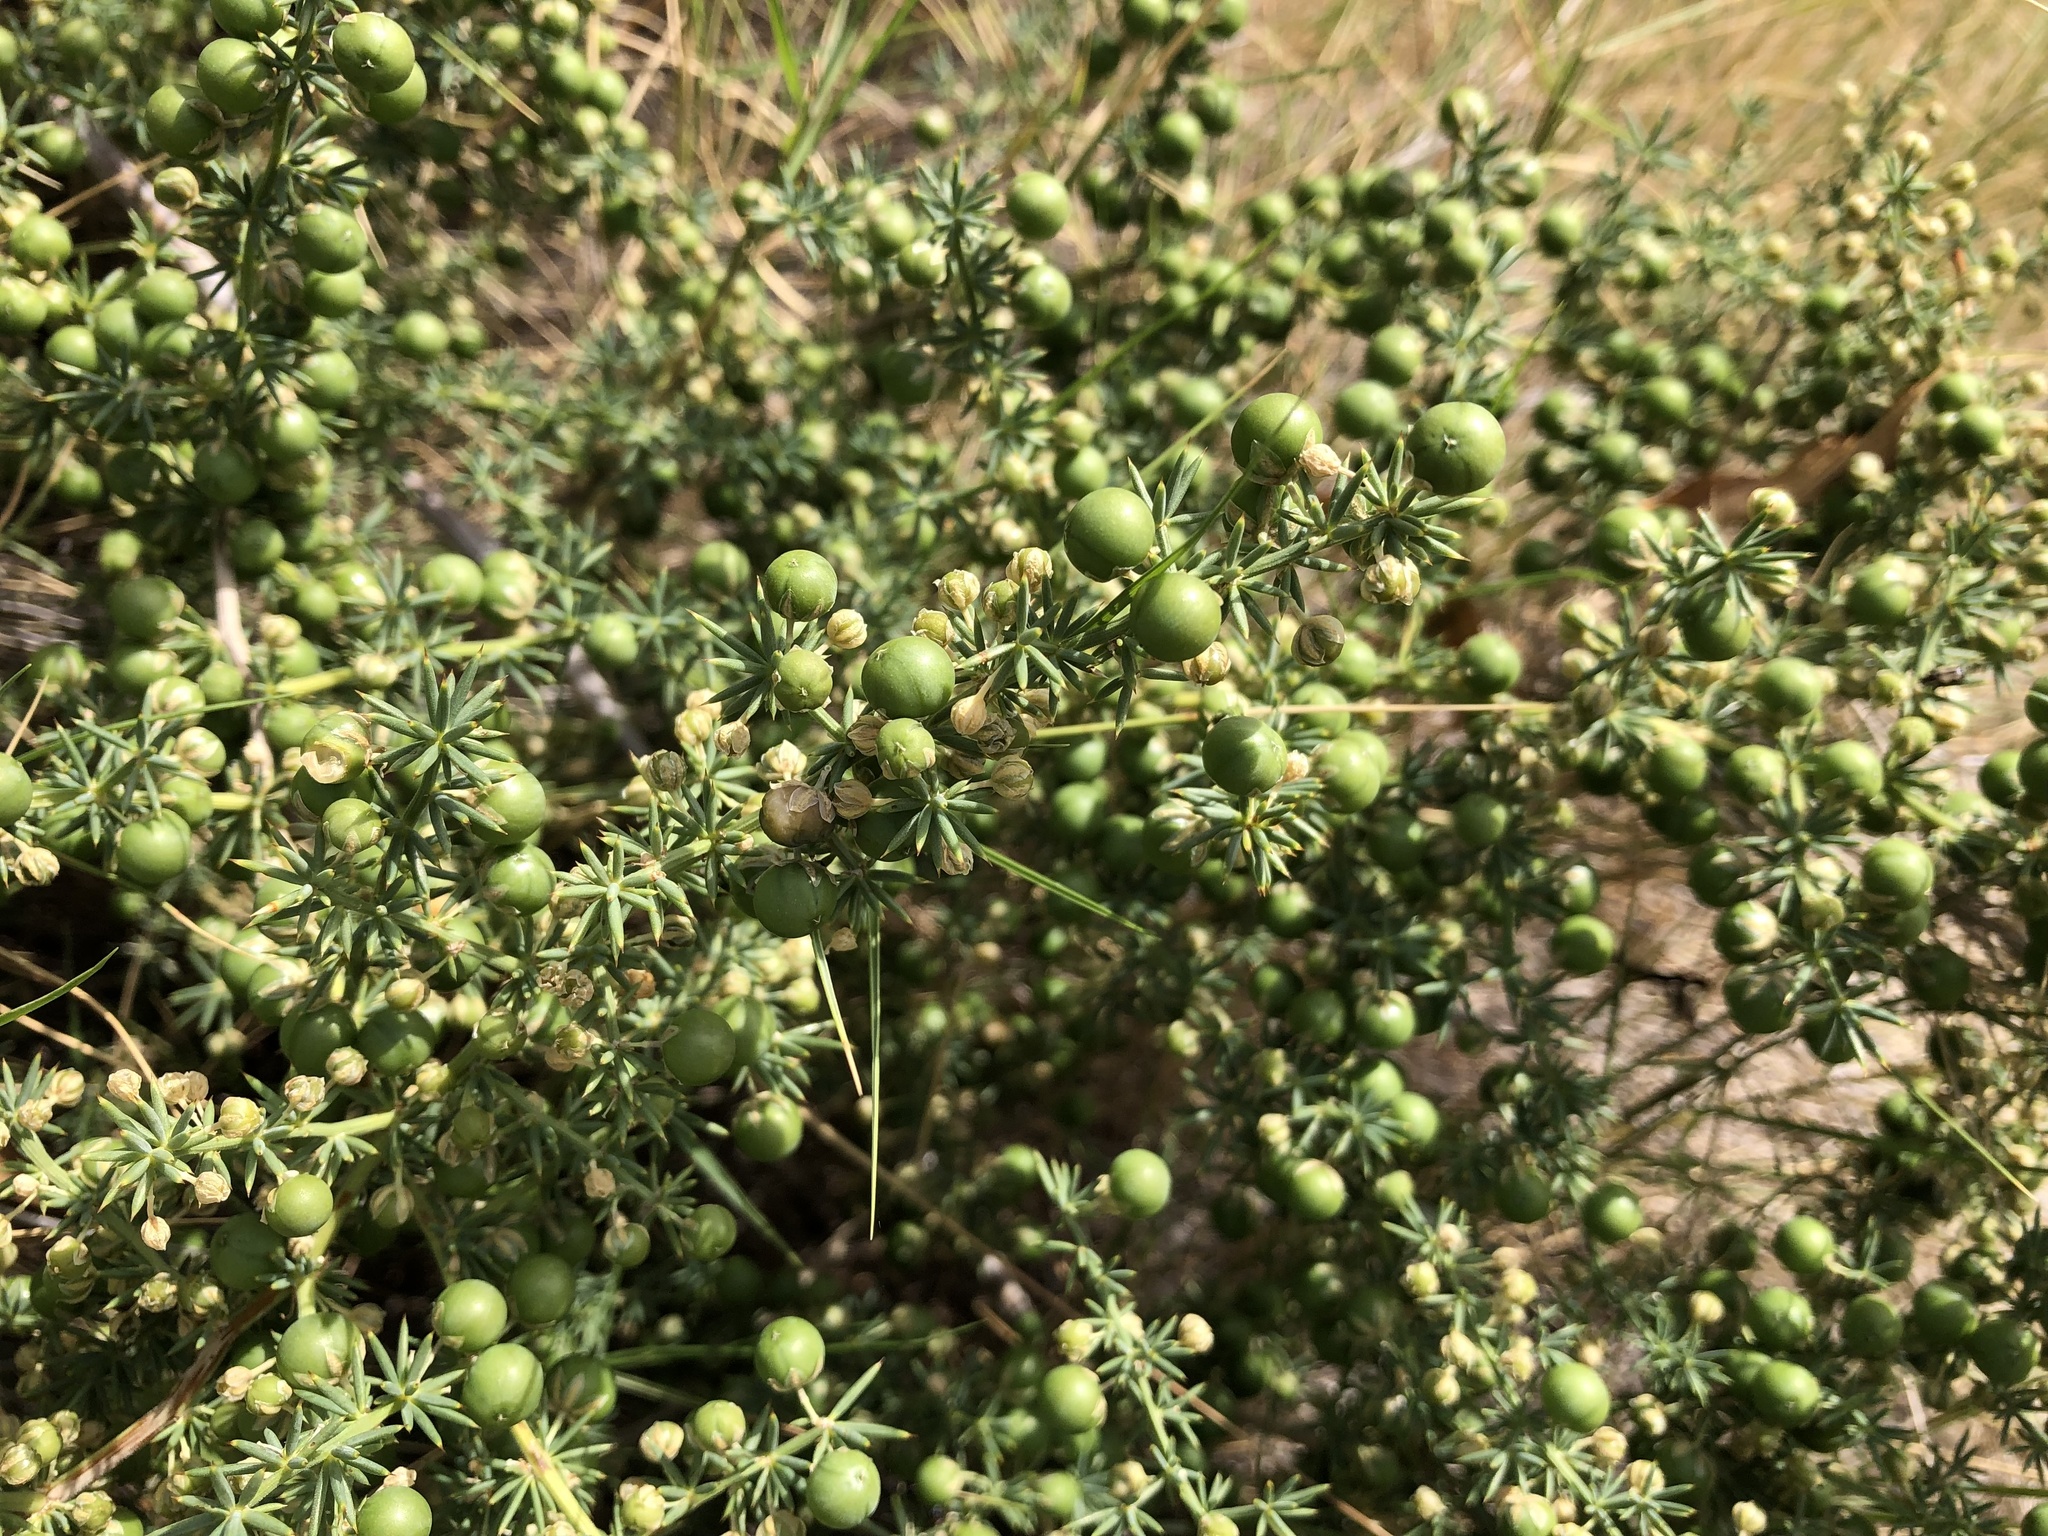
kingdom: Plantae
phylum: Tracheophyta
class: Liliopsida
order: Asparagales
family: Asparagaceae
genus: Asparagus
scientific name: Asparagus acutifolius
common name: Wild asparagus
